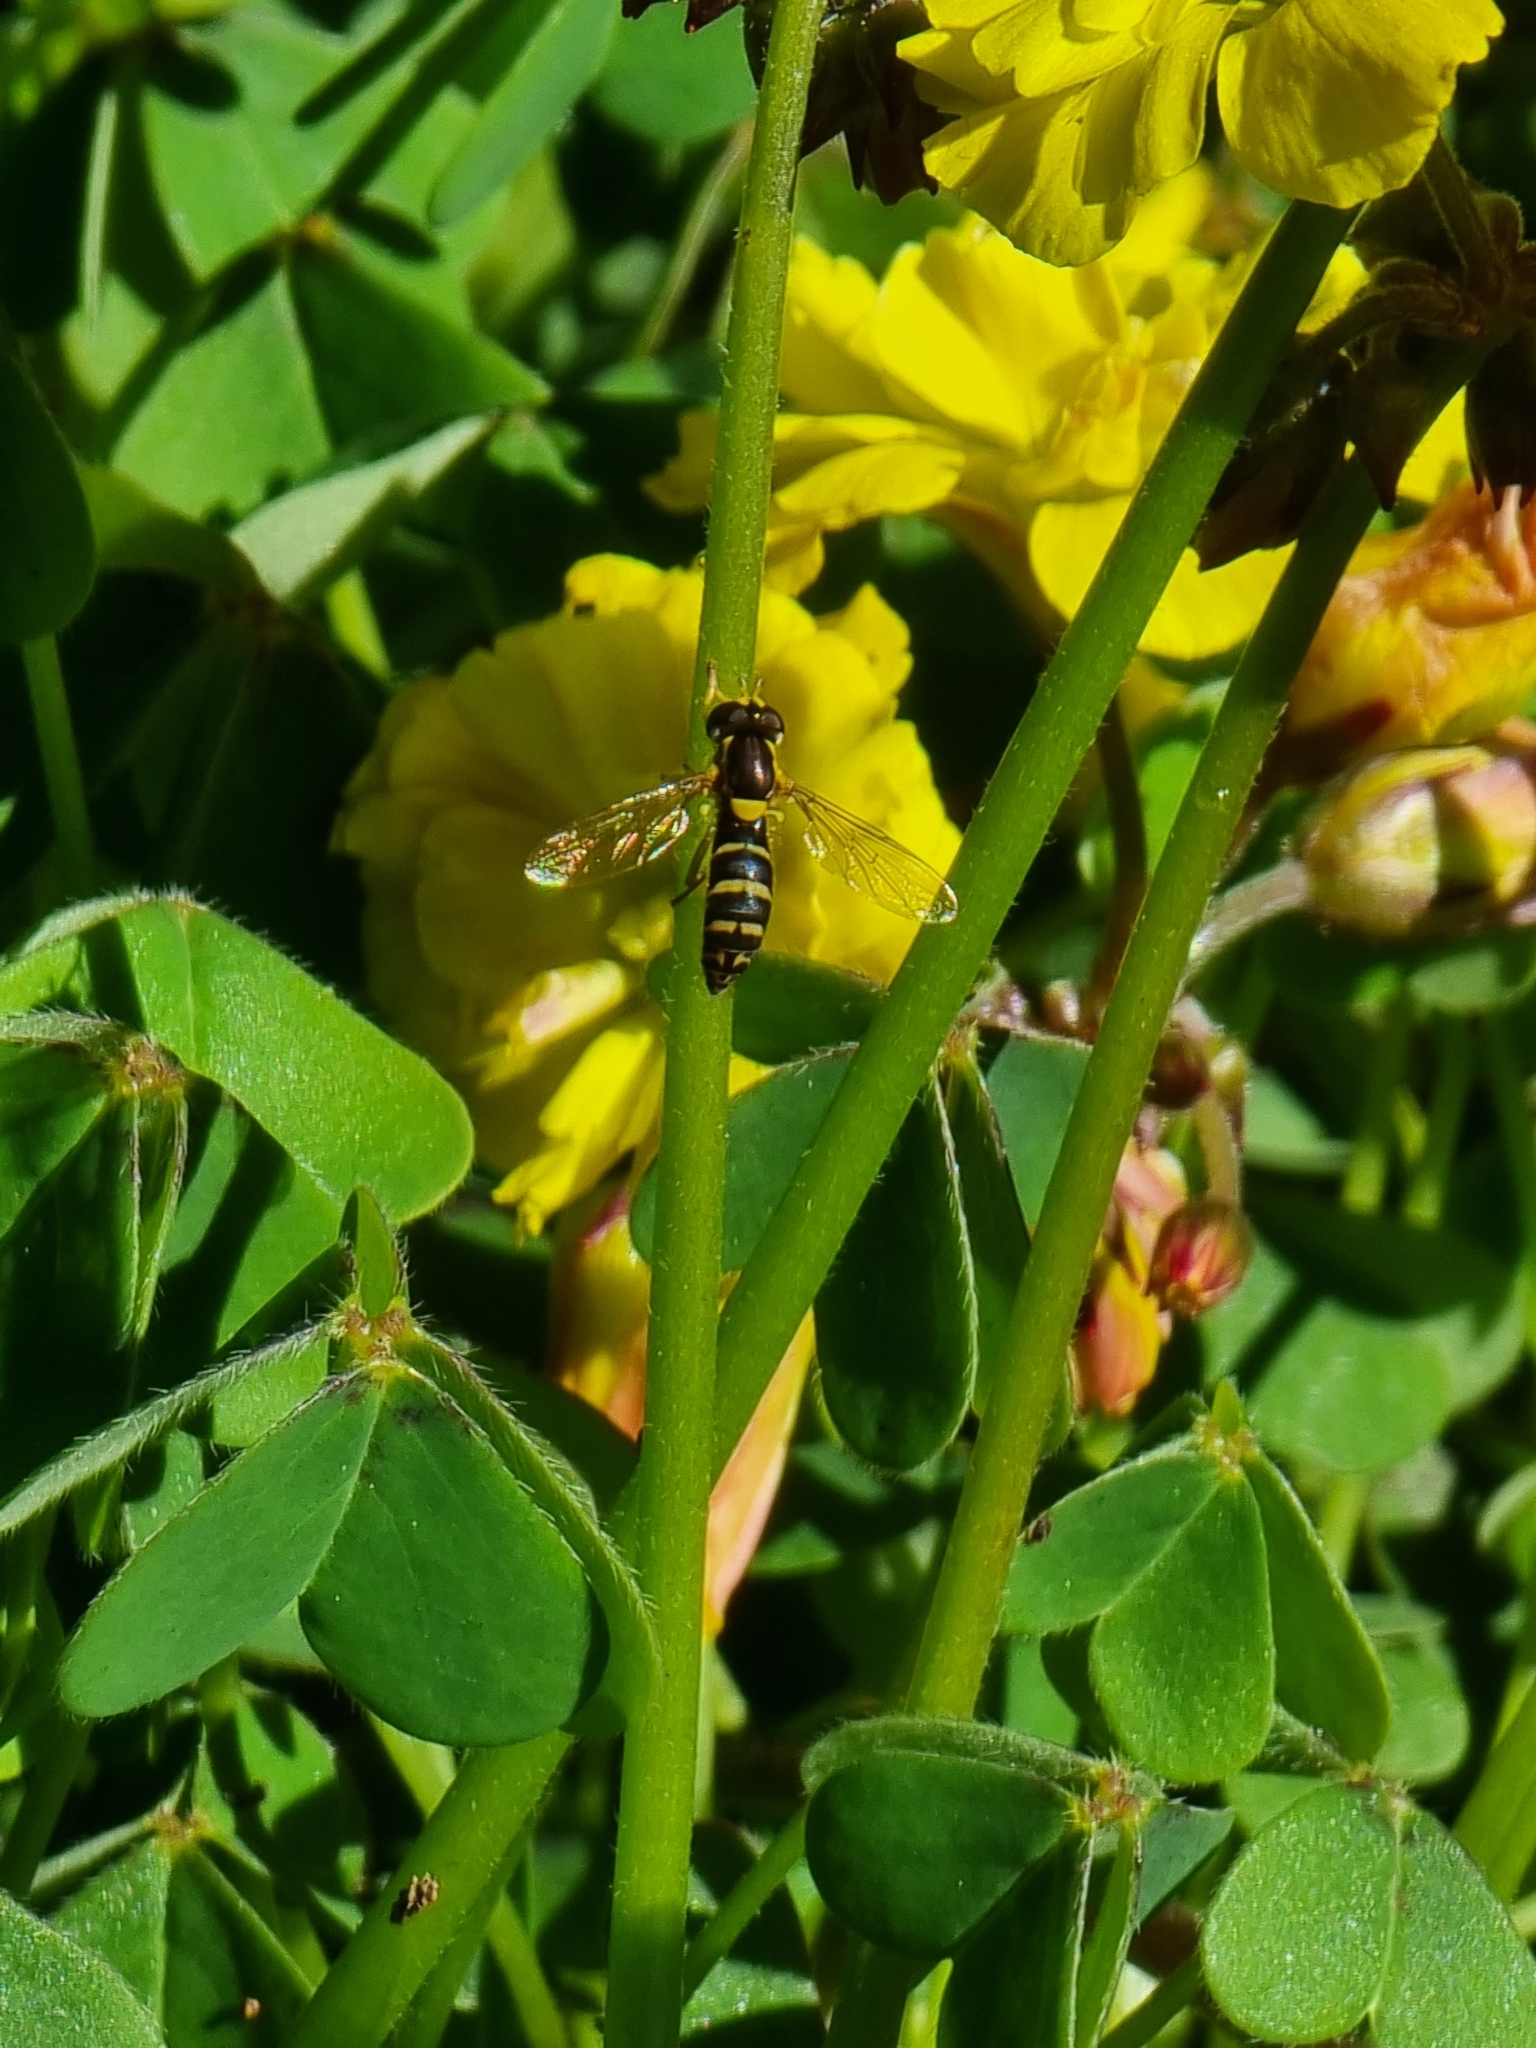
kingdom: Animalia
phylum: Arthropoda
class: Insecta
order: Diptera
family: Syrphidae
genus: Sphaerophoria
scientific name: Sphaerophoria scripta
